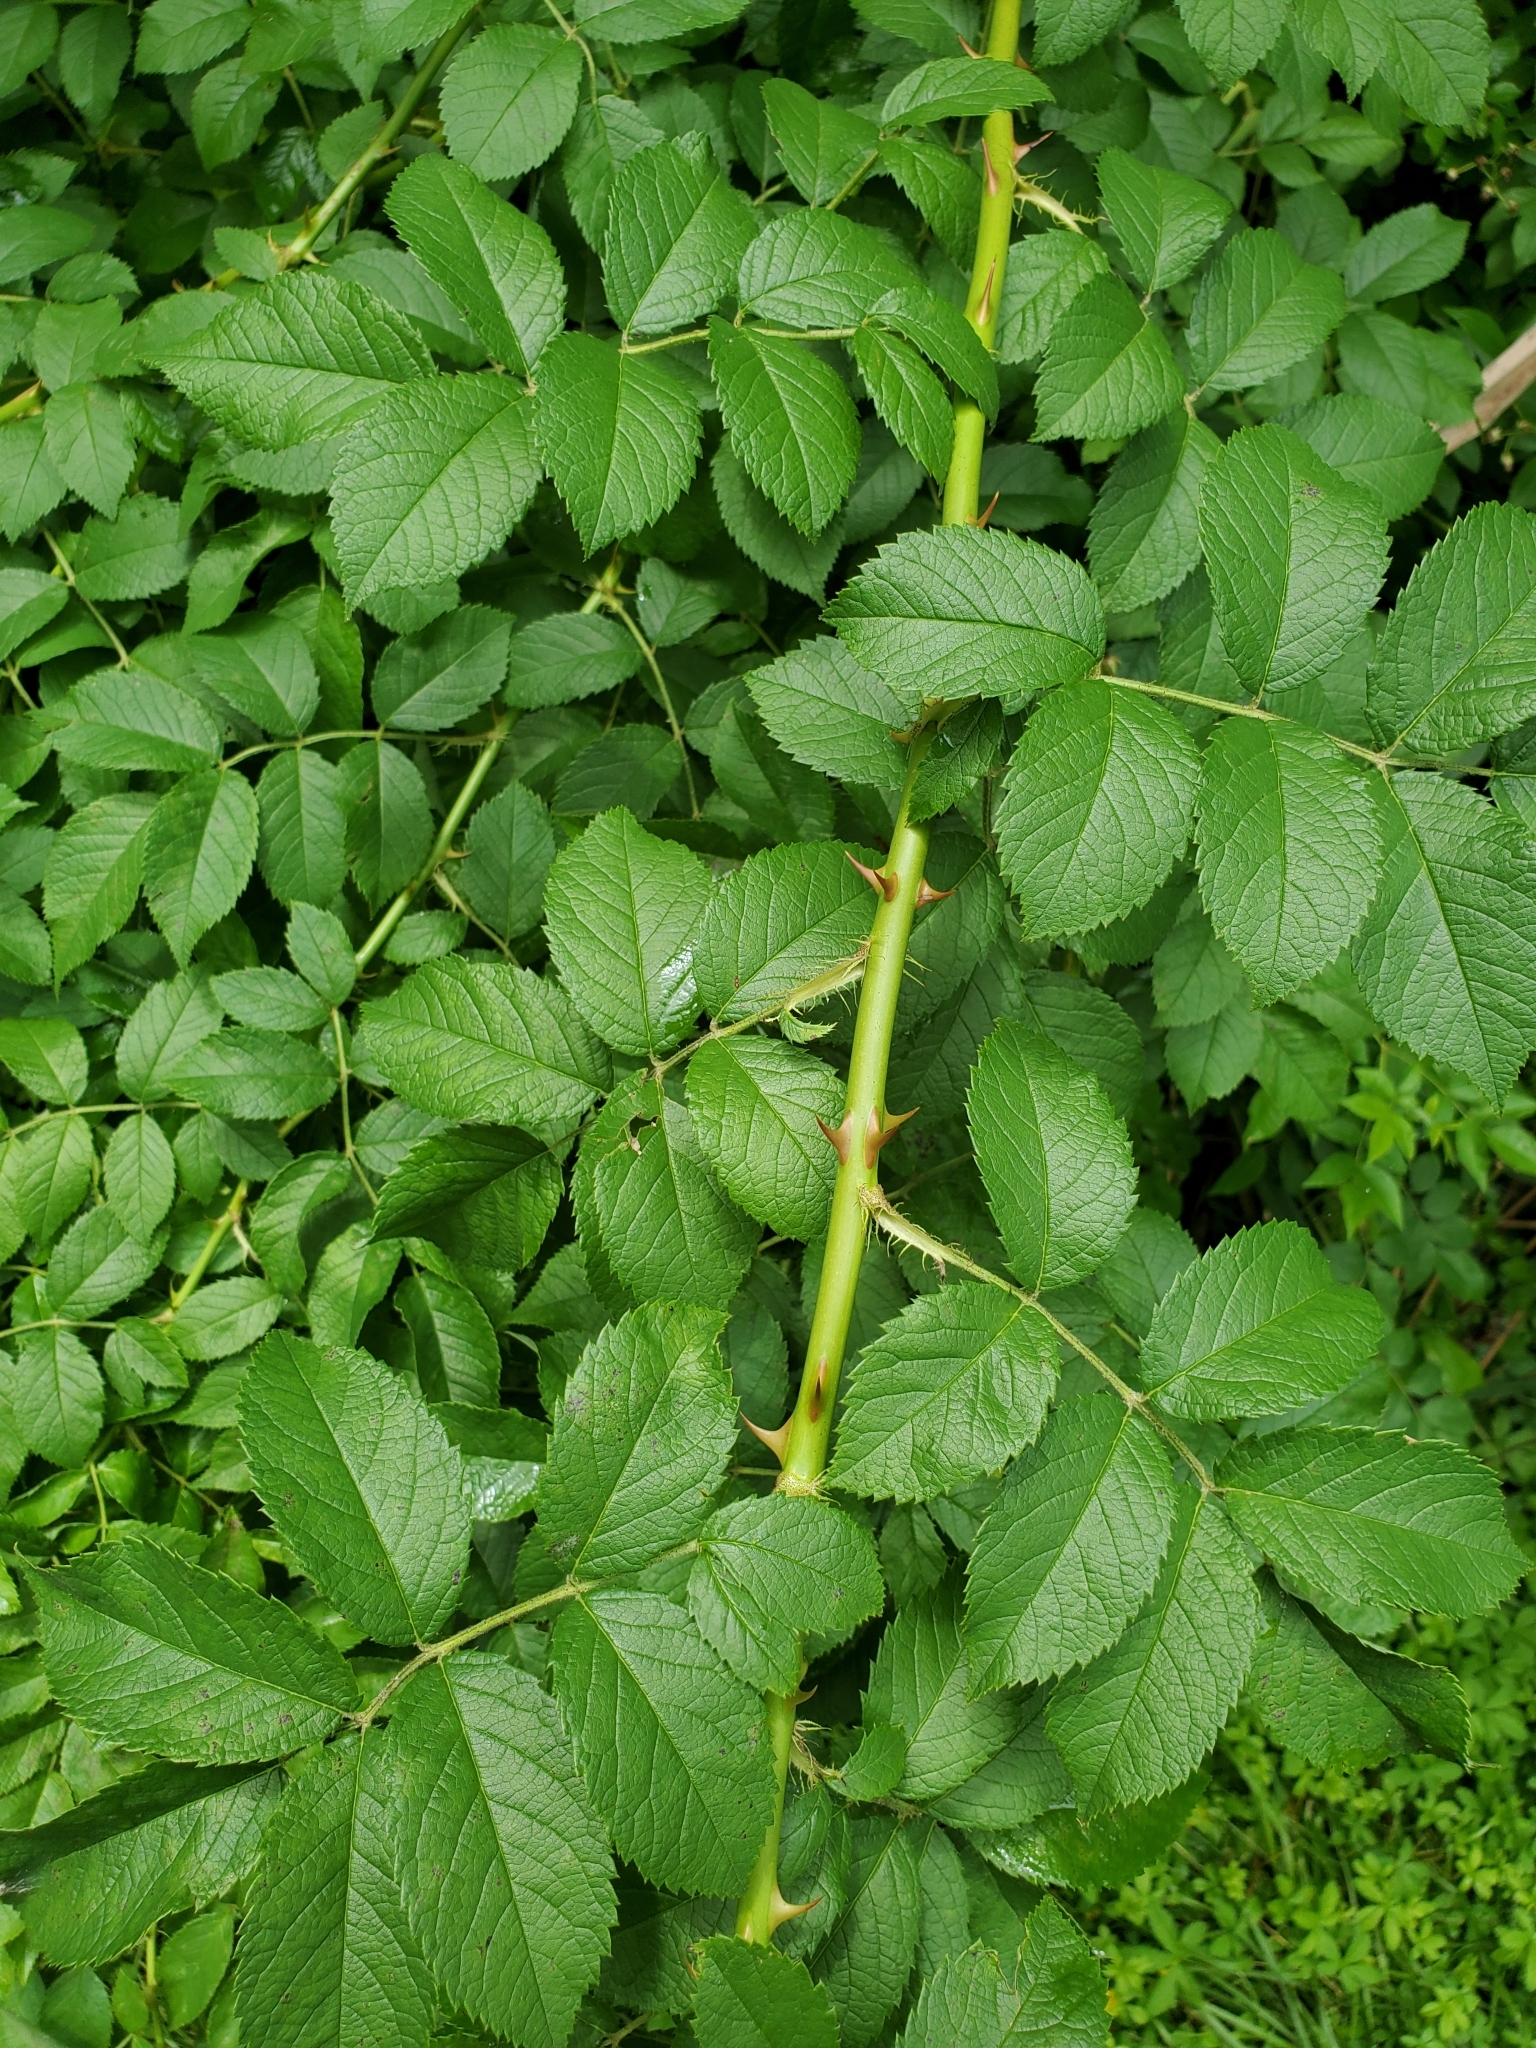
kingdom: Plantae
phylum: Tracheophyta
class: Magnoliopsida
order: Rosales
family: Rosaceae
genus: Rosa
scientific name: Rosa multiflora
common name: Multiflora rose
